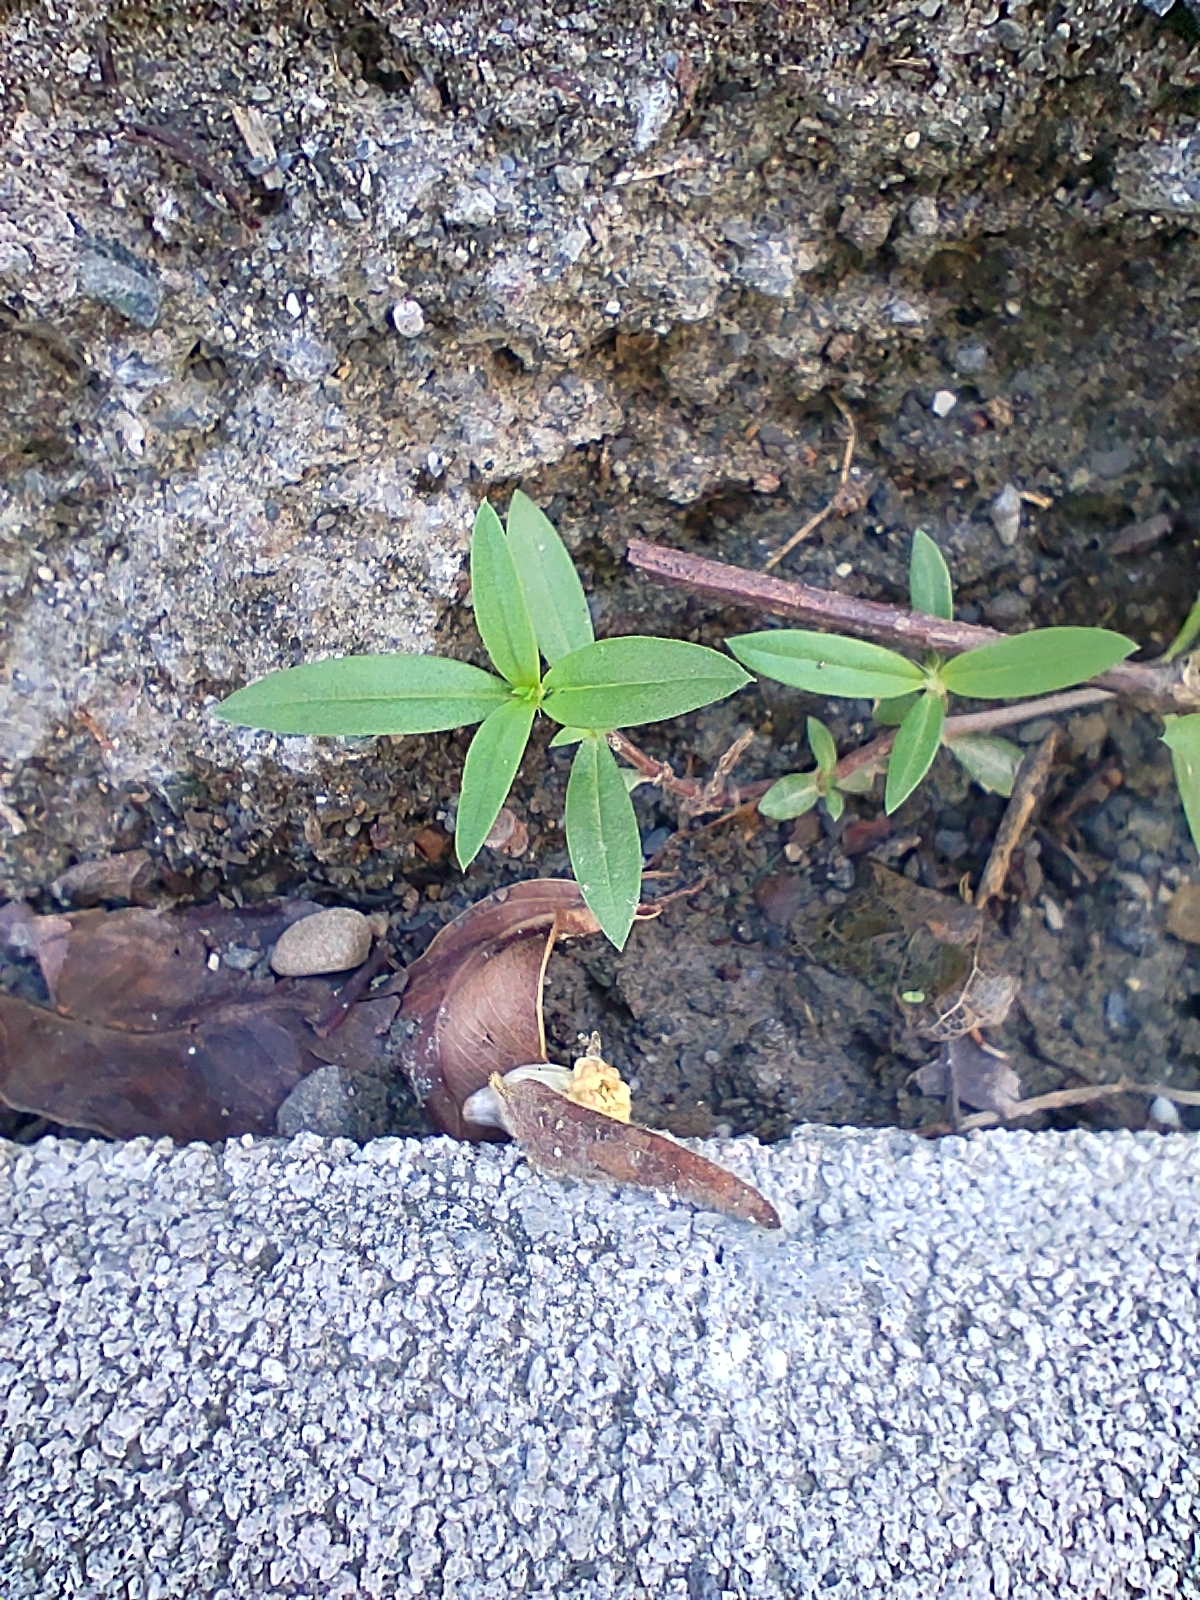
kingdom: Plantae
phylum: Tracheophyta
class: Magnoliopsida
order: Gentianales
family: Rubiaceae
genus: Oldenlandia
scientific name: Oldenlandia corymbosa
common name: Flat-top mille graines
